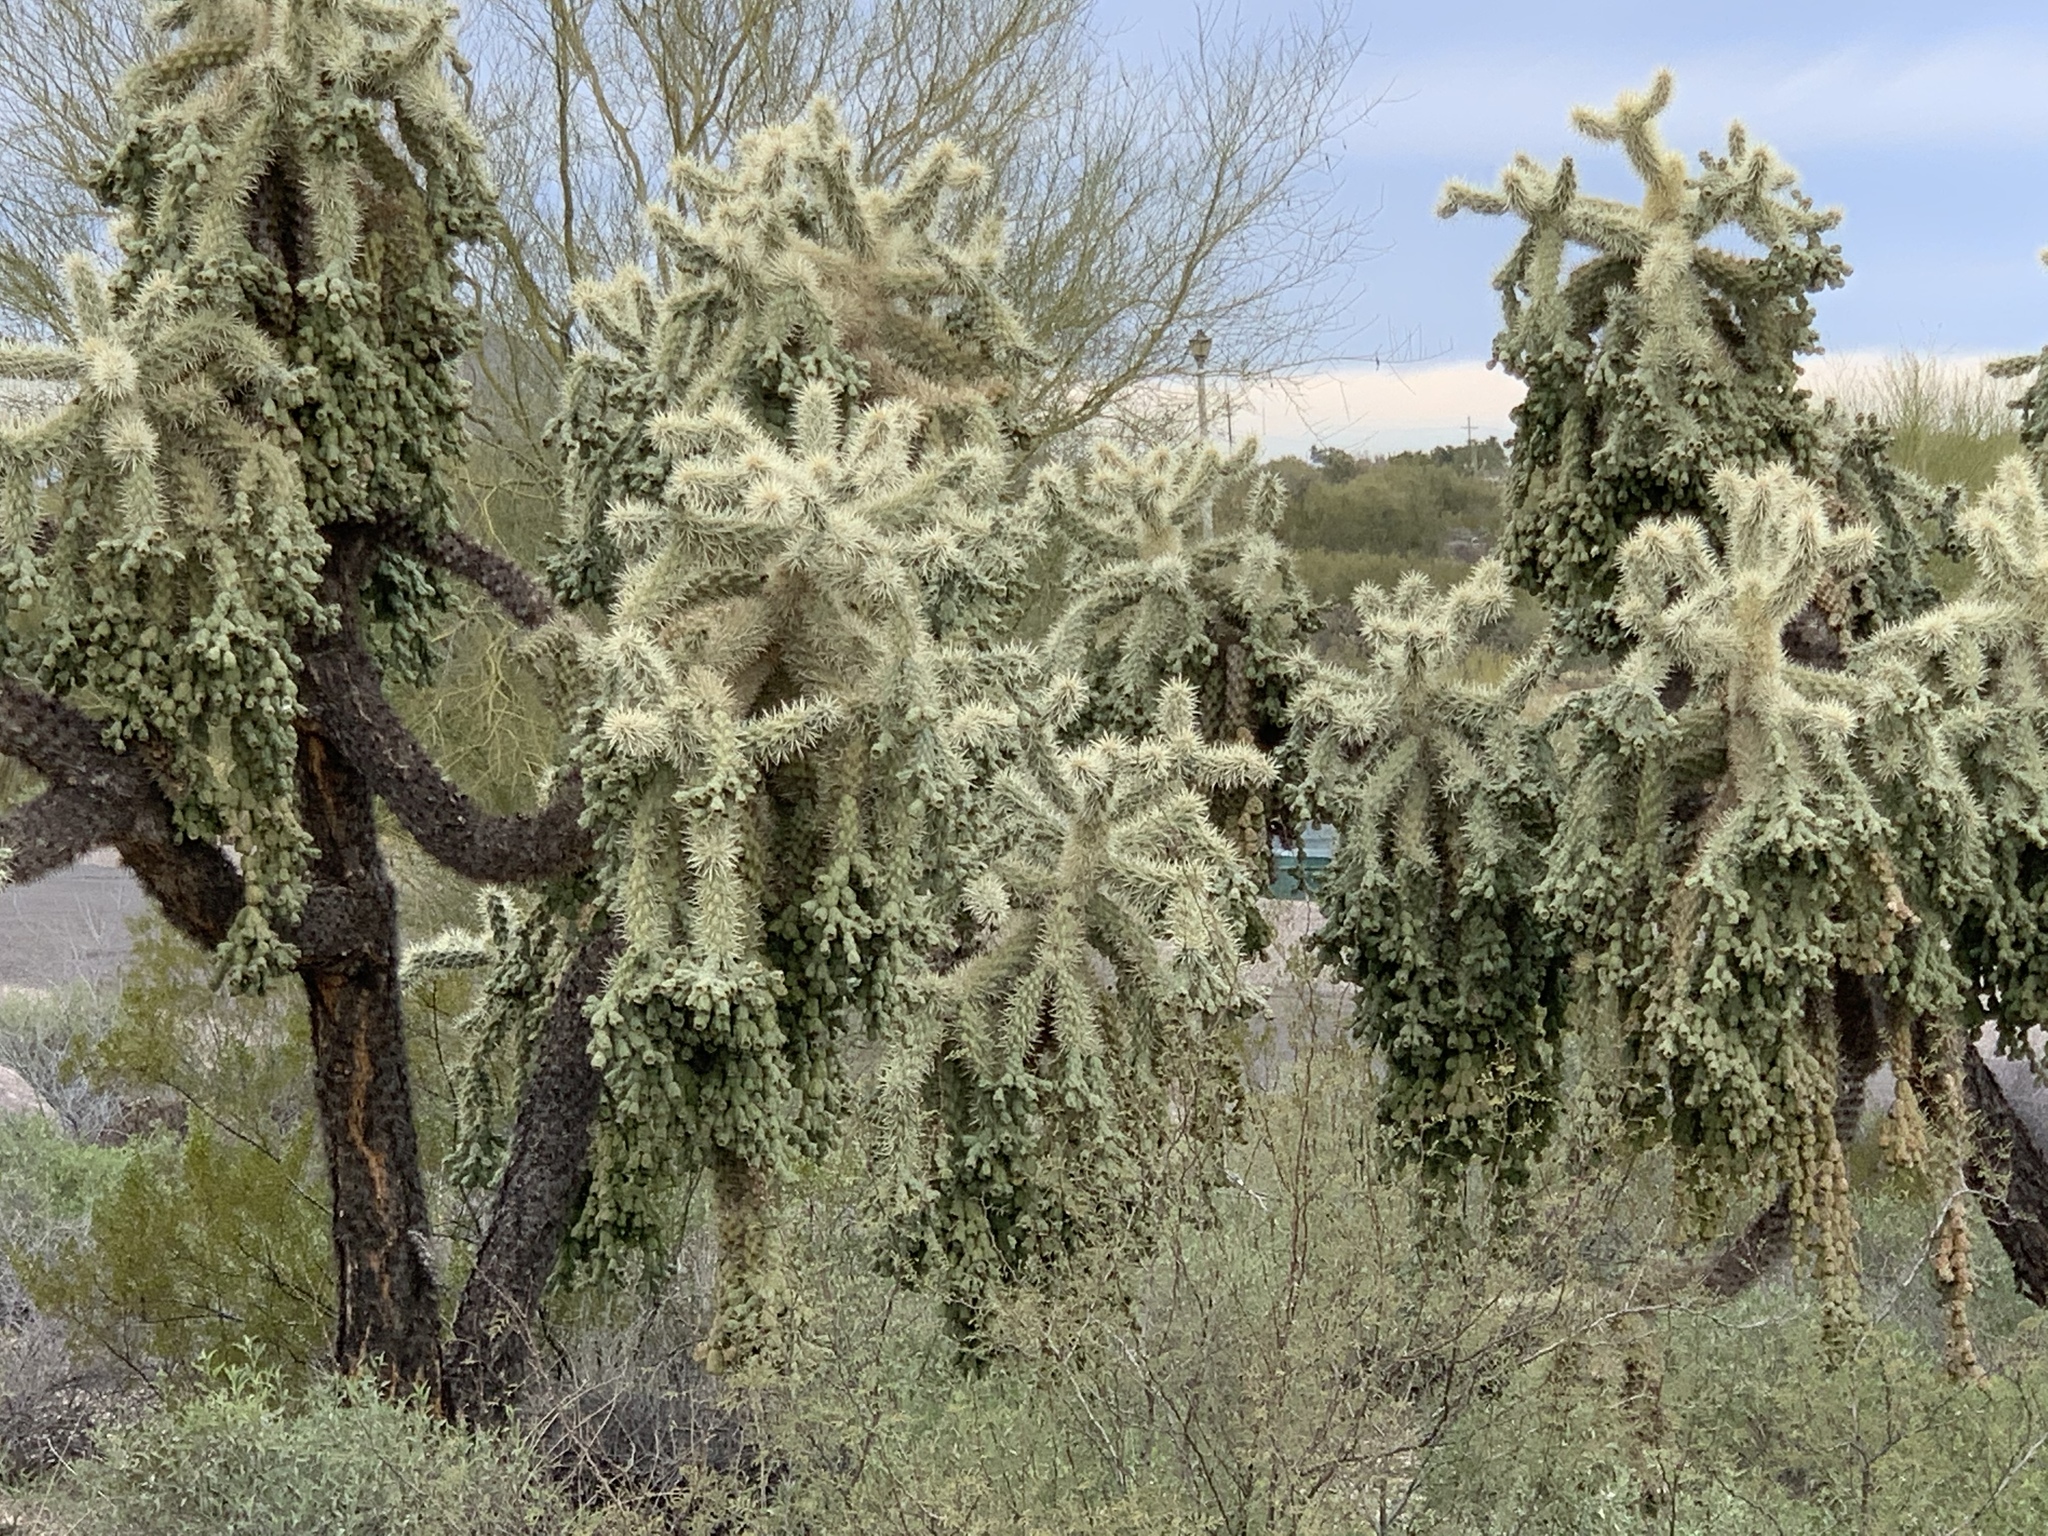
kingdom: Plantae
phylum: Tracheophyta
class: Magnoliopsida
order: Caryophyllales
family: Cactaceae
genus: Cylindropuntia
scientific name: Cylindropuntia fulgida
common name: Jumping cholla
